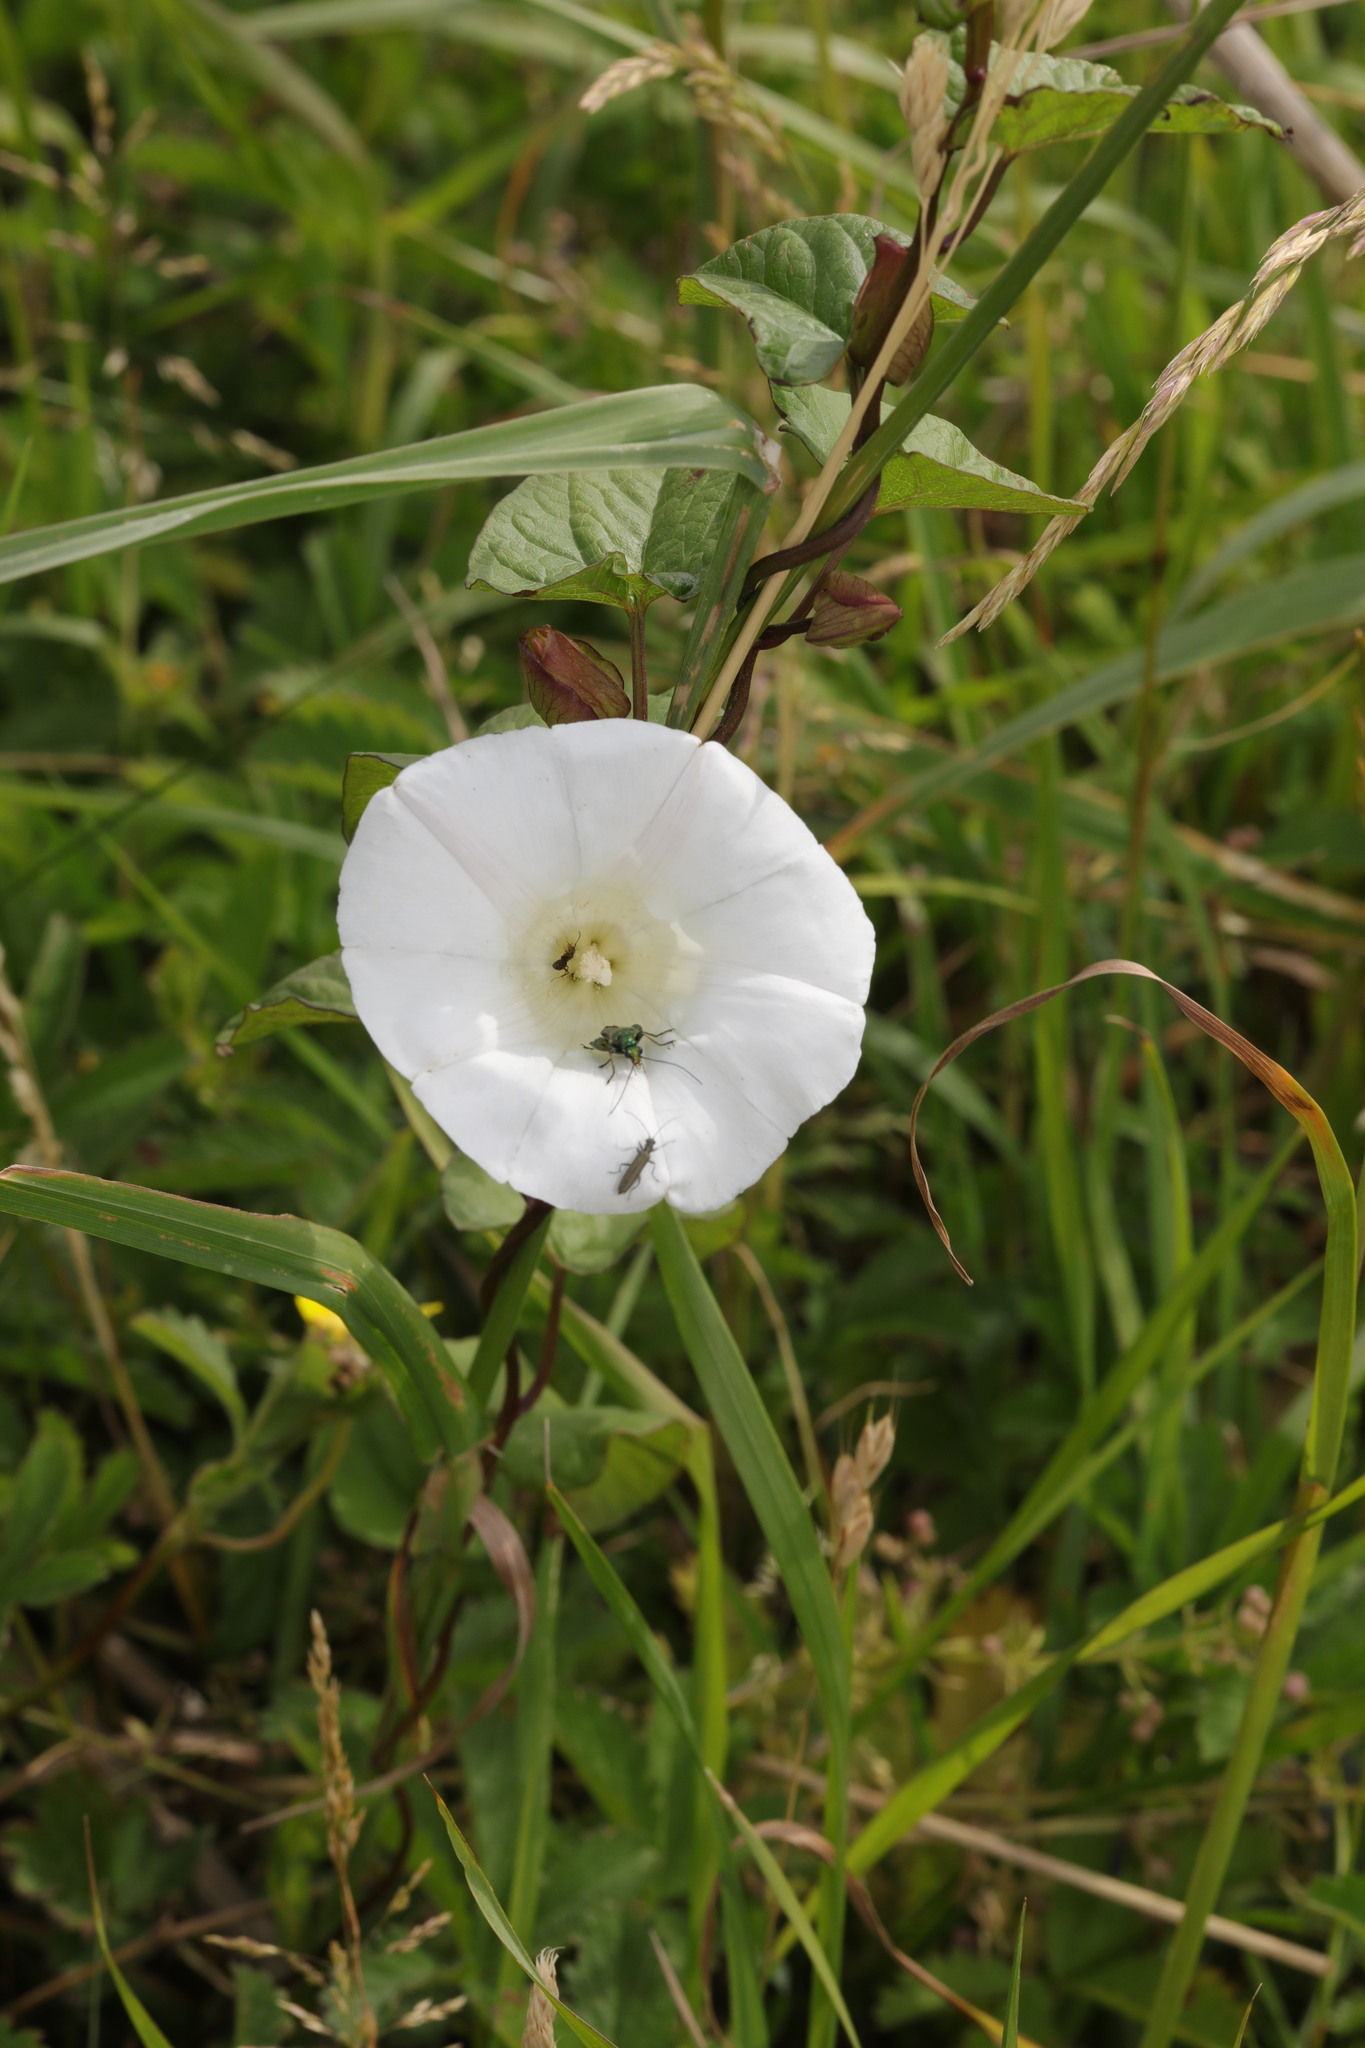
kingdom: Plantae
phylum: Tracheophyta
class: Magnoliopsida
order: Solanales
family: Convolvulaceae
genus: Calystegia
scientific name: Calystegia sepium
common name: Hedge bindweed
